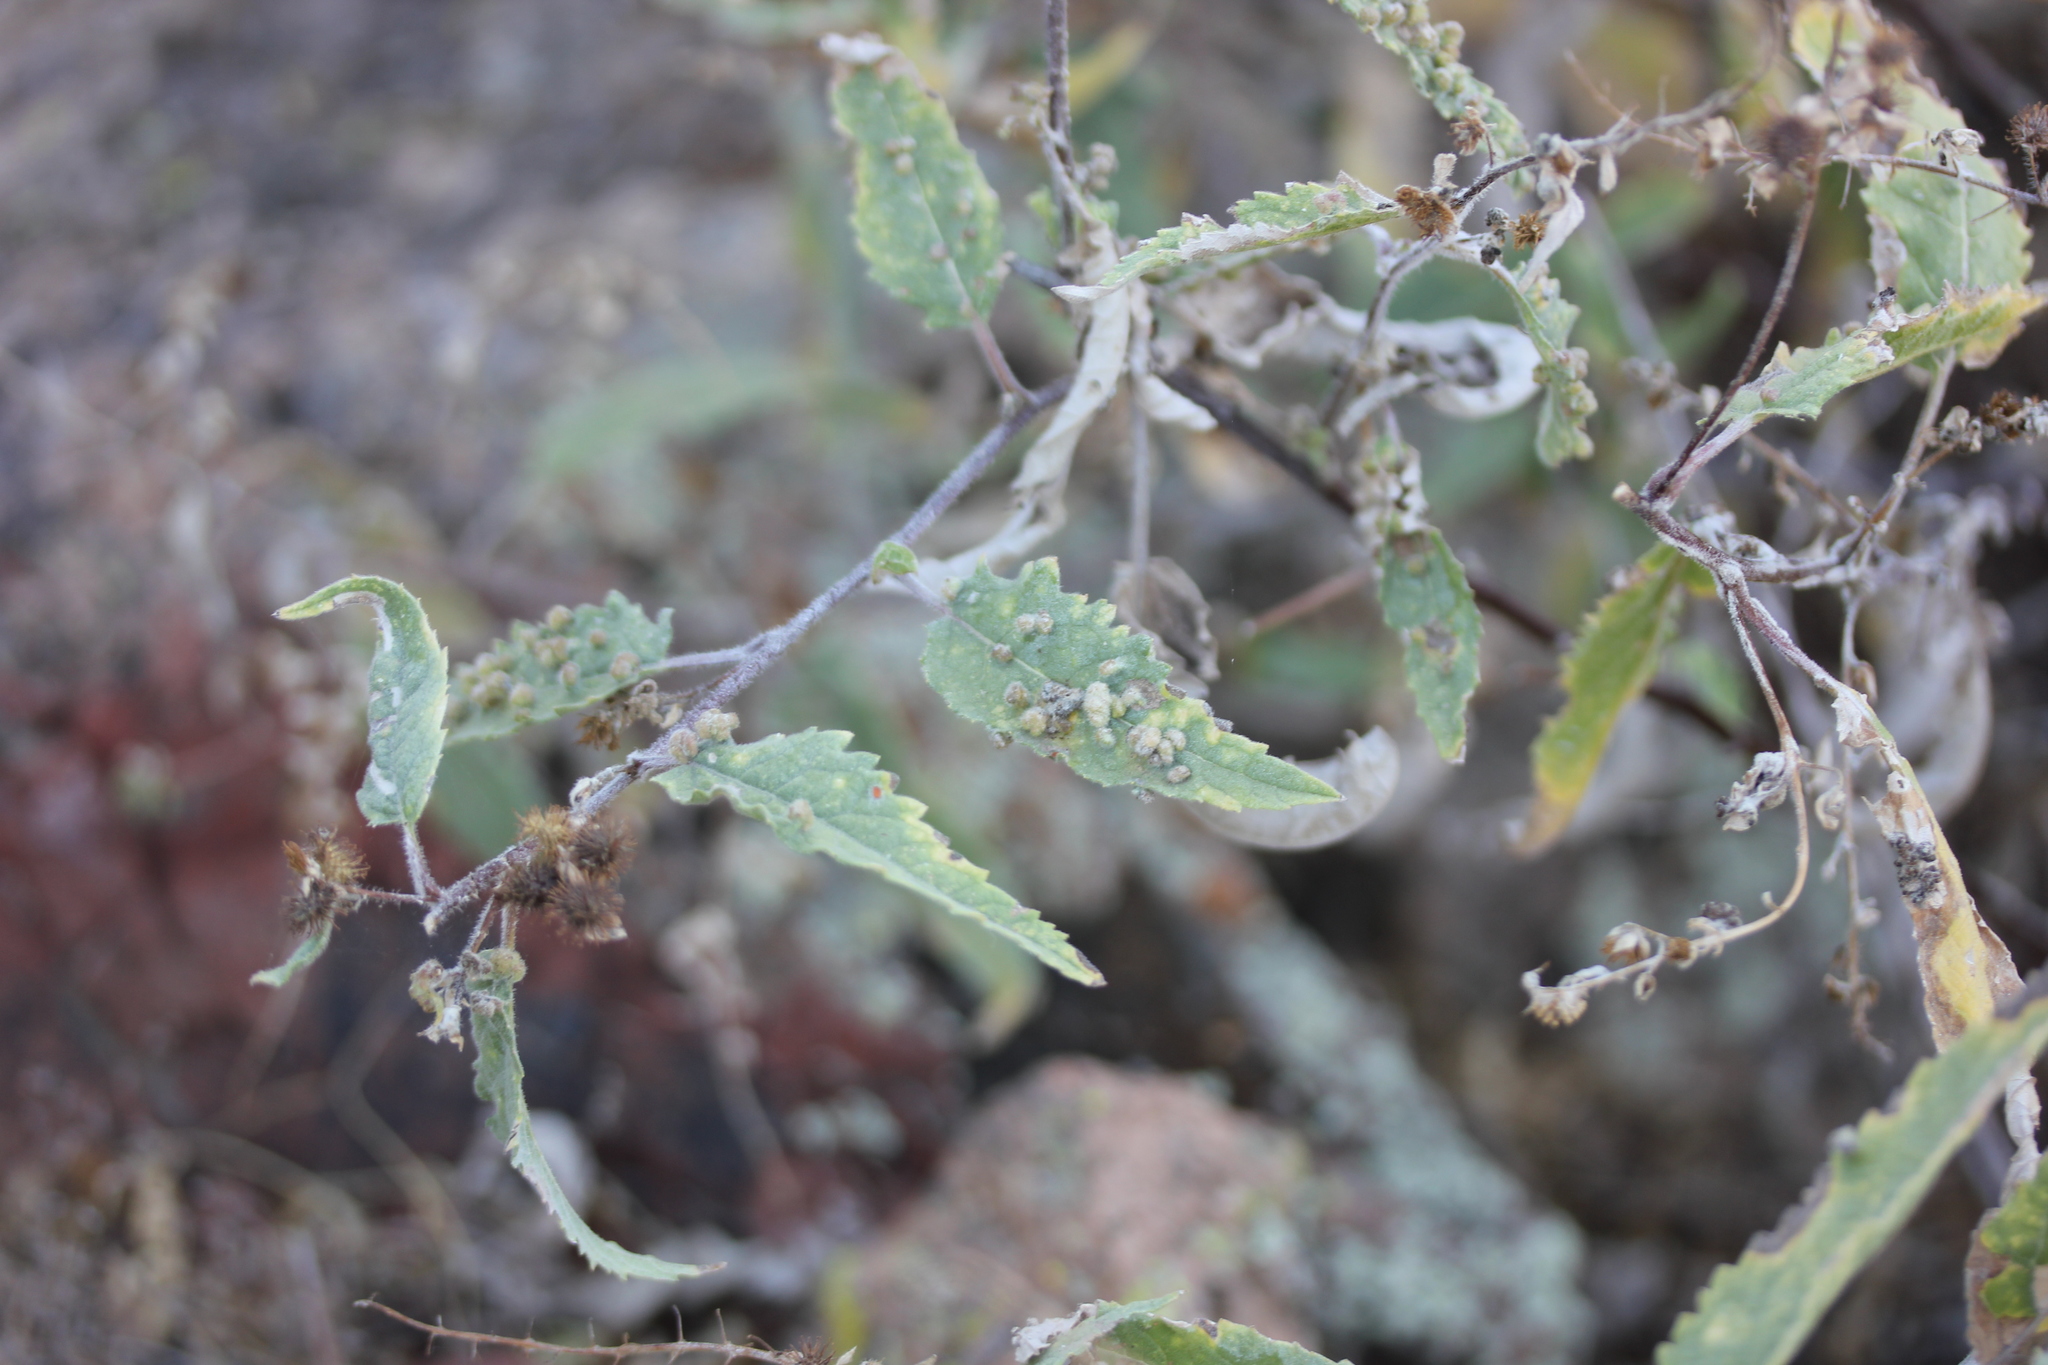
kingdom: Plantae
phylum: Tracheophyta
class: Magnoliopsida
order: Asterales
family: Asteraceae
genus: Ambrosia
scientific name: Ambrosia ambrosioides
